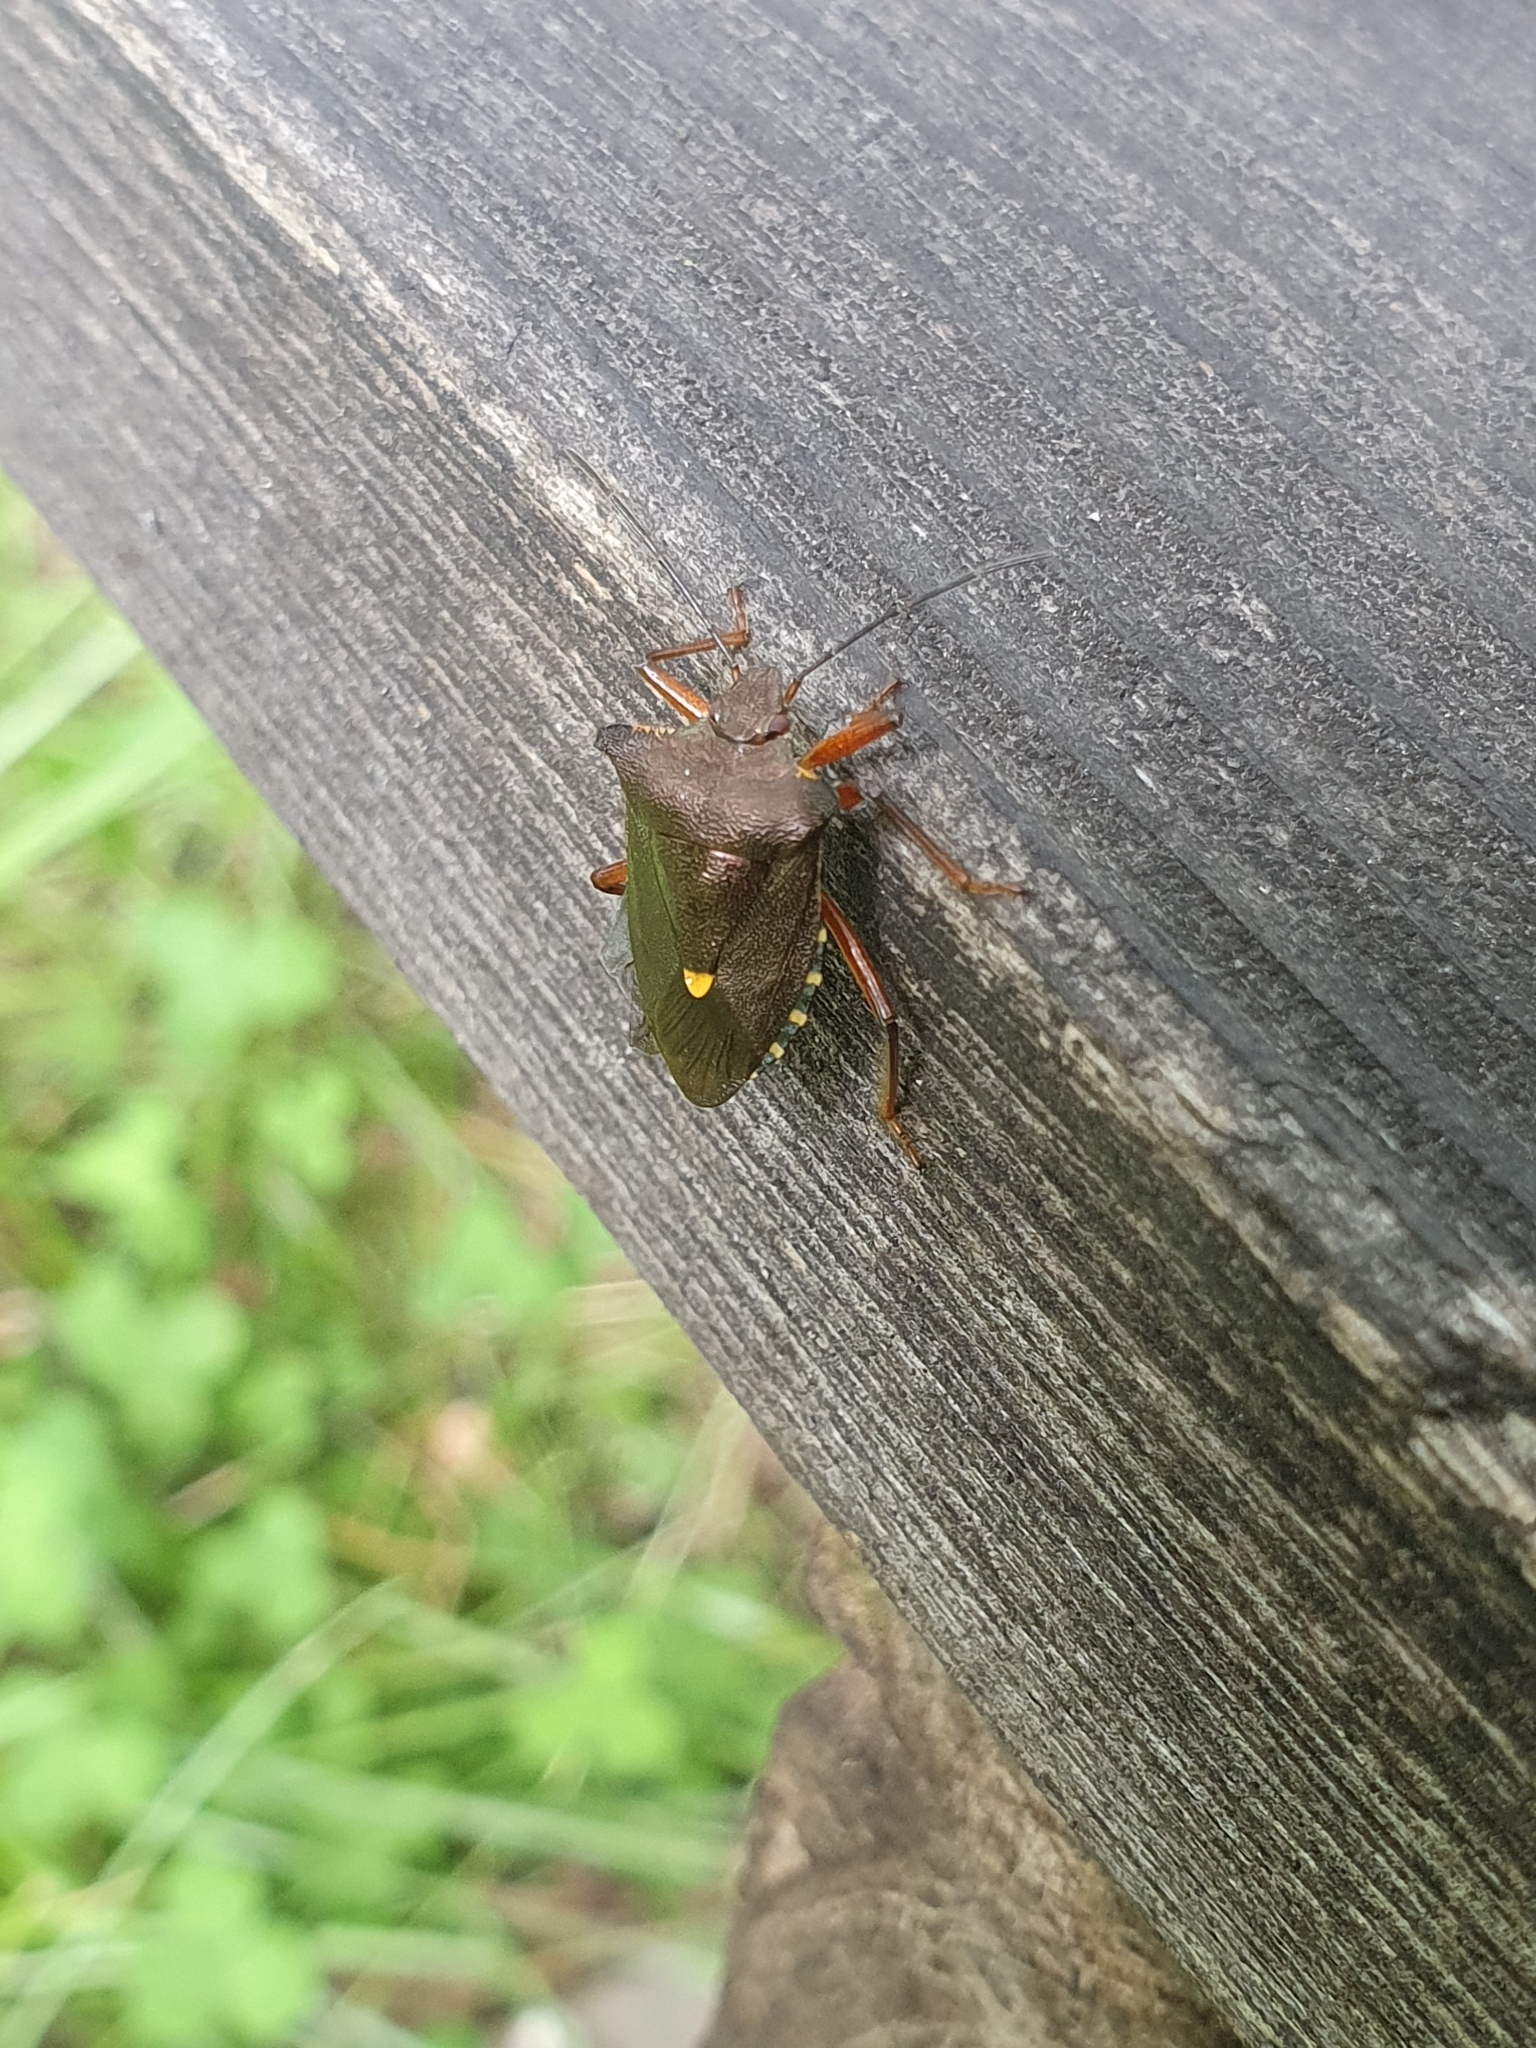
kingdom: Animalia
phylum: Arthropoda
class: Insecta
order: Hemiptera
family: Pentatomidae
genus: Pentatoma
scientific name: Pentatoma rufipes
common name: Forest bug
